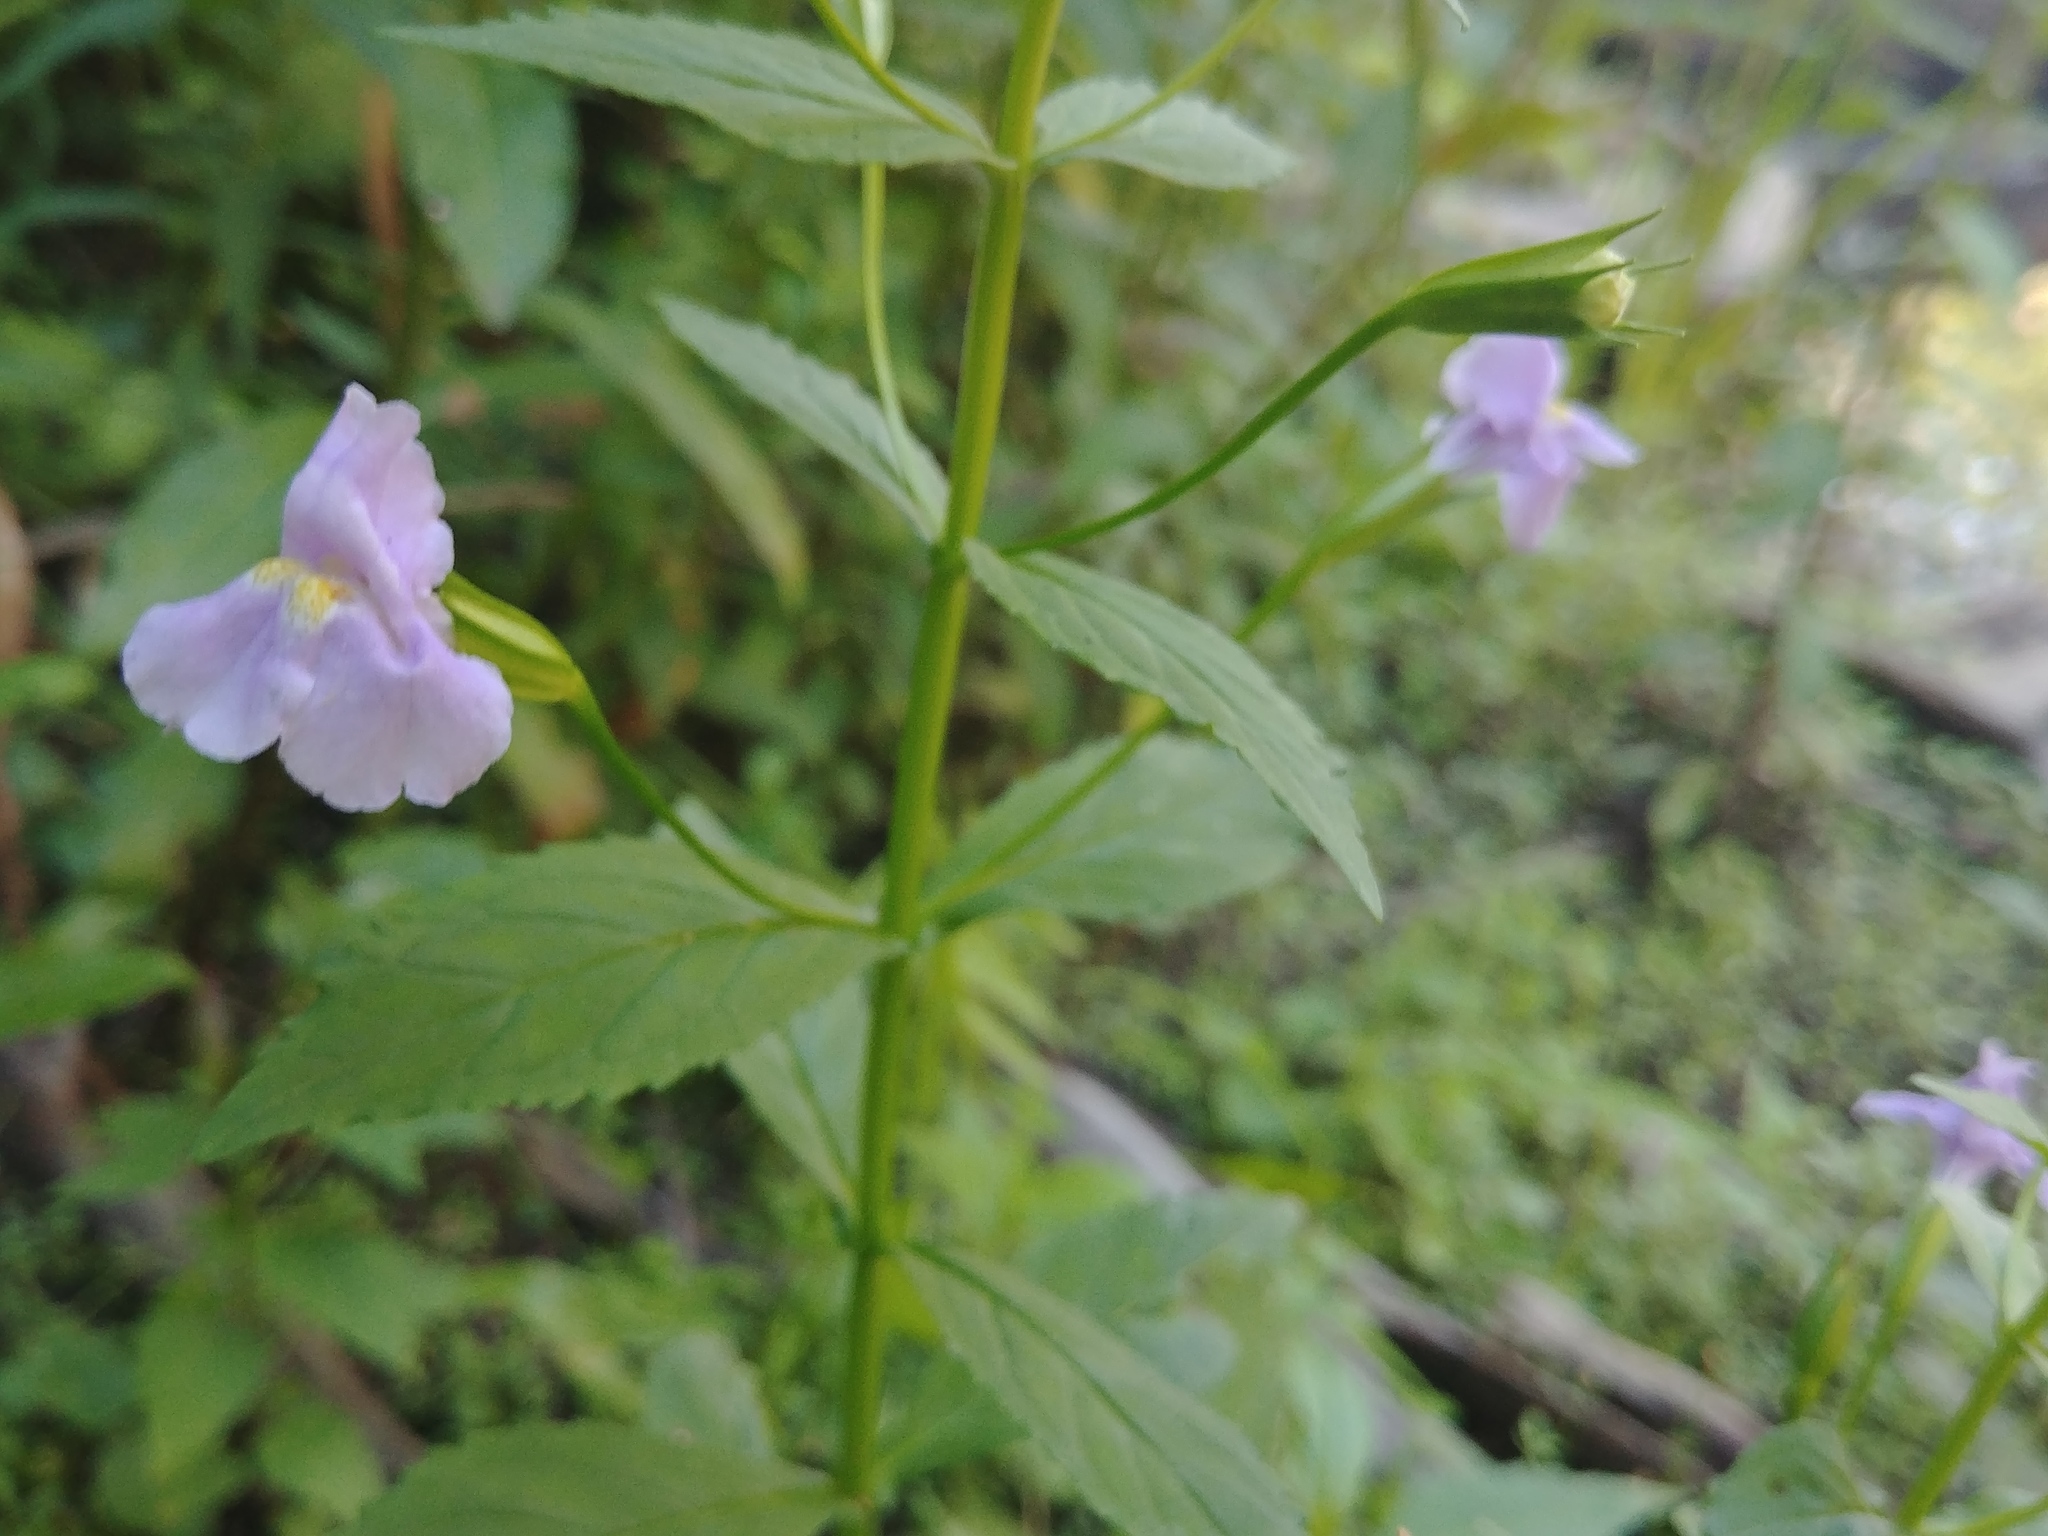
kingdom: Plantae
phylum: Tracheophyta
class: Magnoliopsida
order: Lamiales
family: Phrymaceae
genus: Mimulus
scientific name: Mimulus ringens
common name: Allegheny monkeyflower
